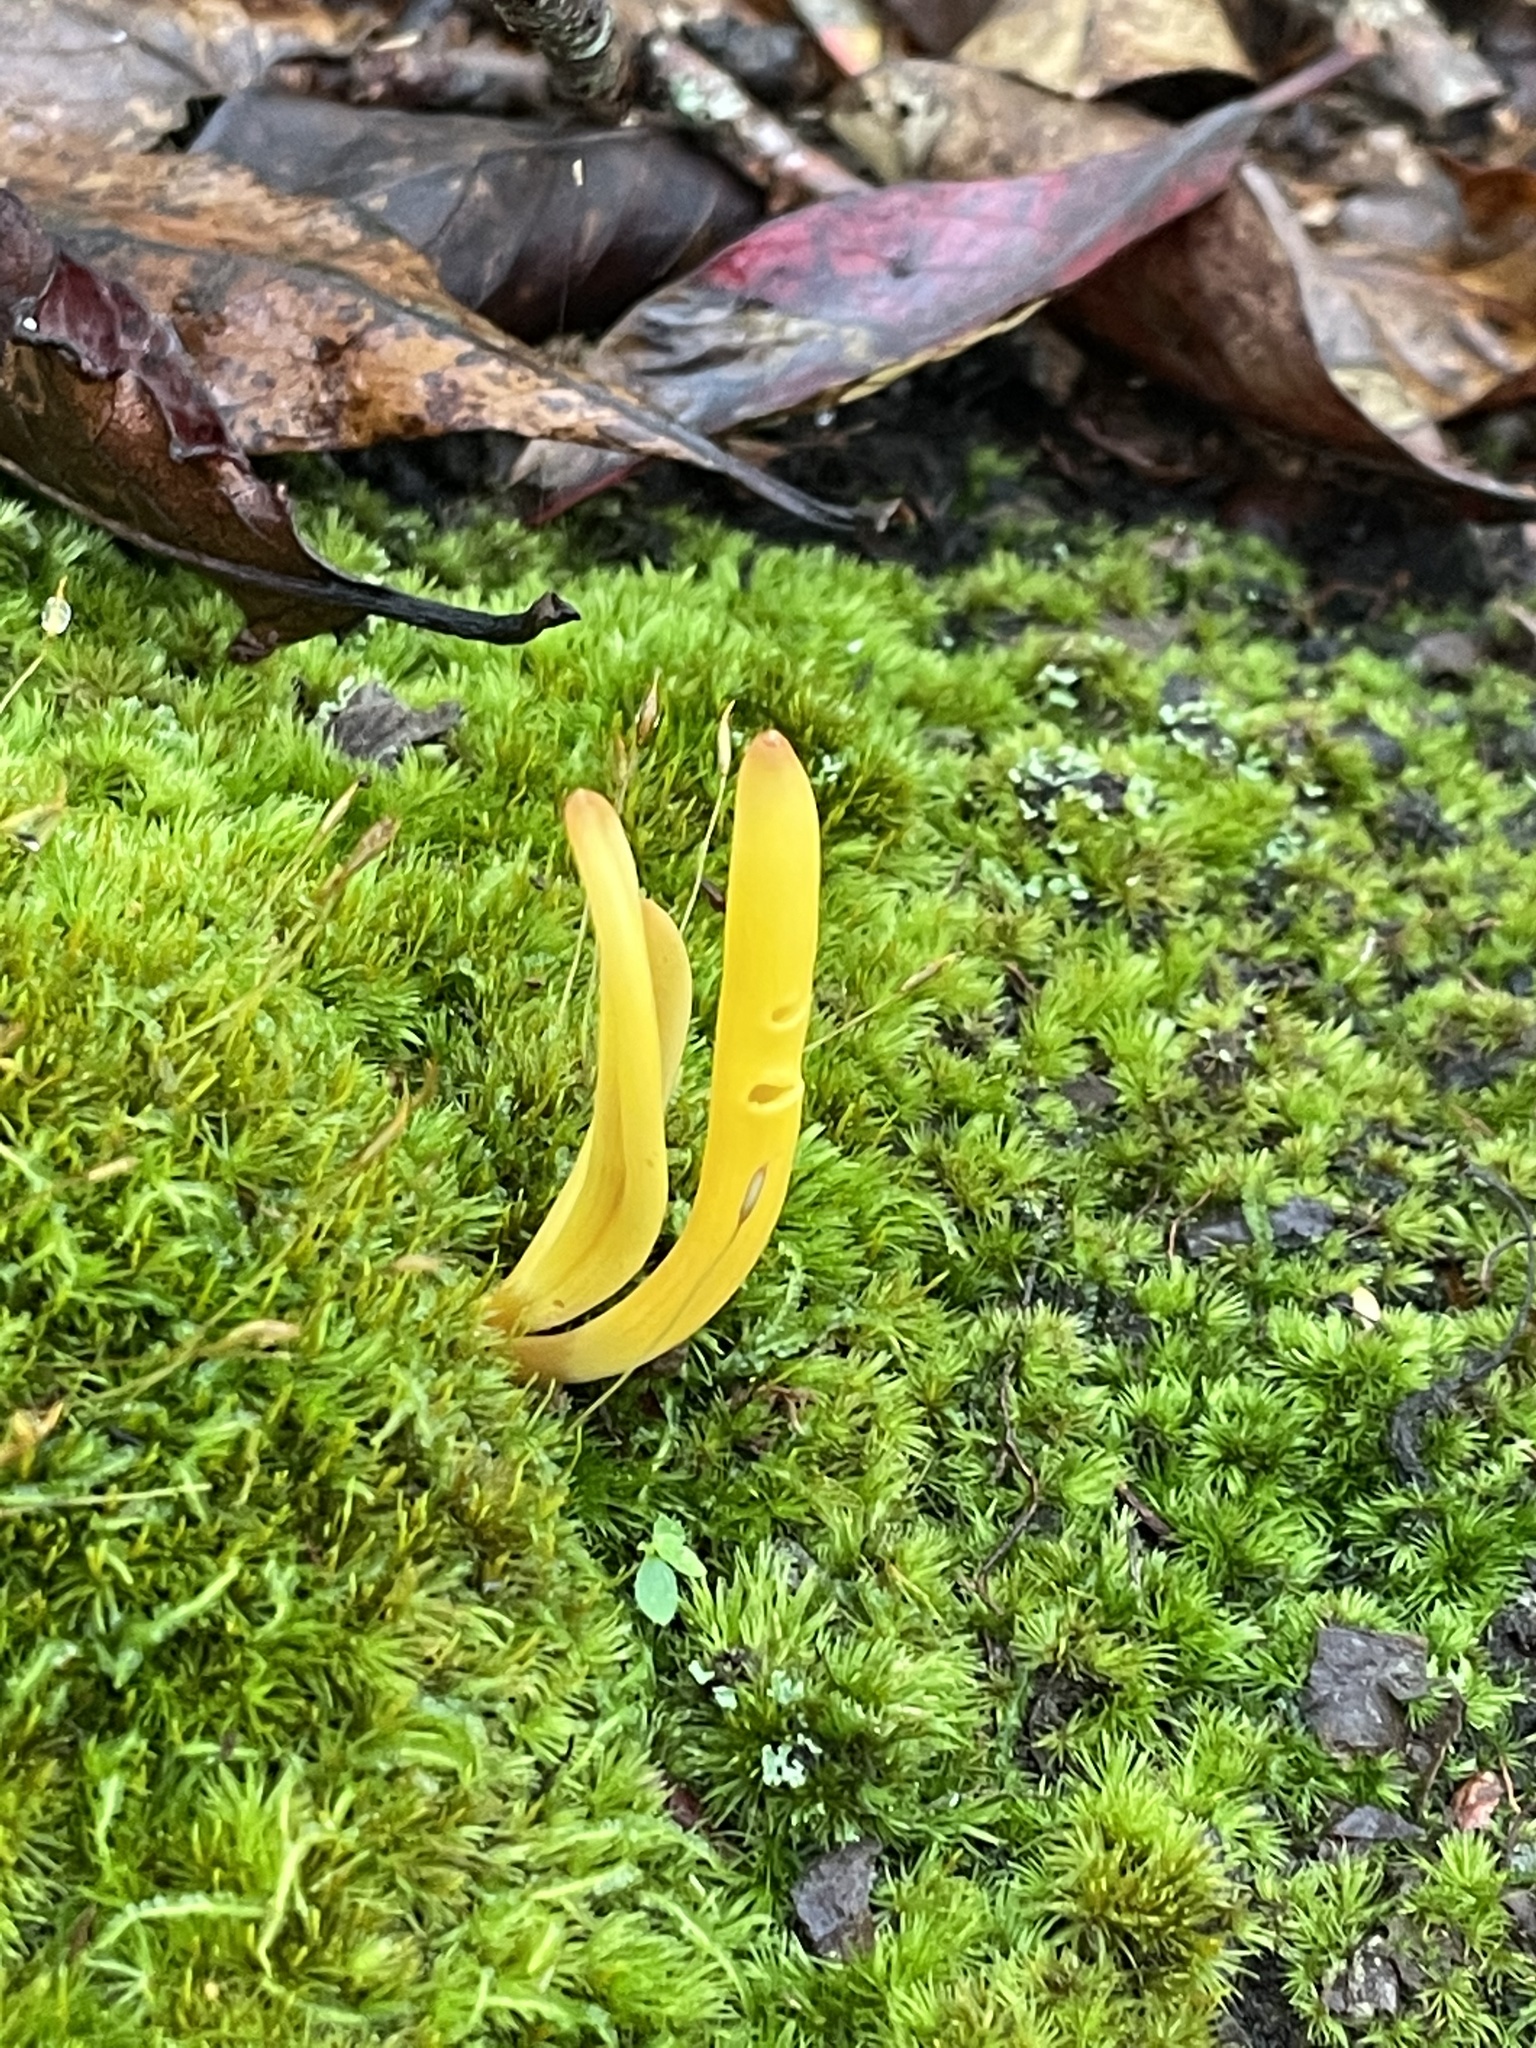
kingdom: Fungi
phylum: Basidiomycota
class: Agaricomycetes
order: Agaricales
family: Clavariaceae
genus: Clavulinopsis
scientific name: Clavulinopsis fusiformis
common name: Golden spindles
